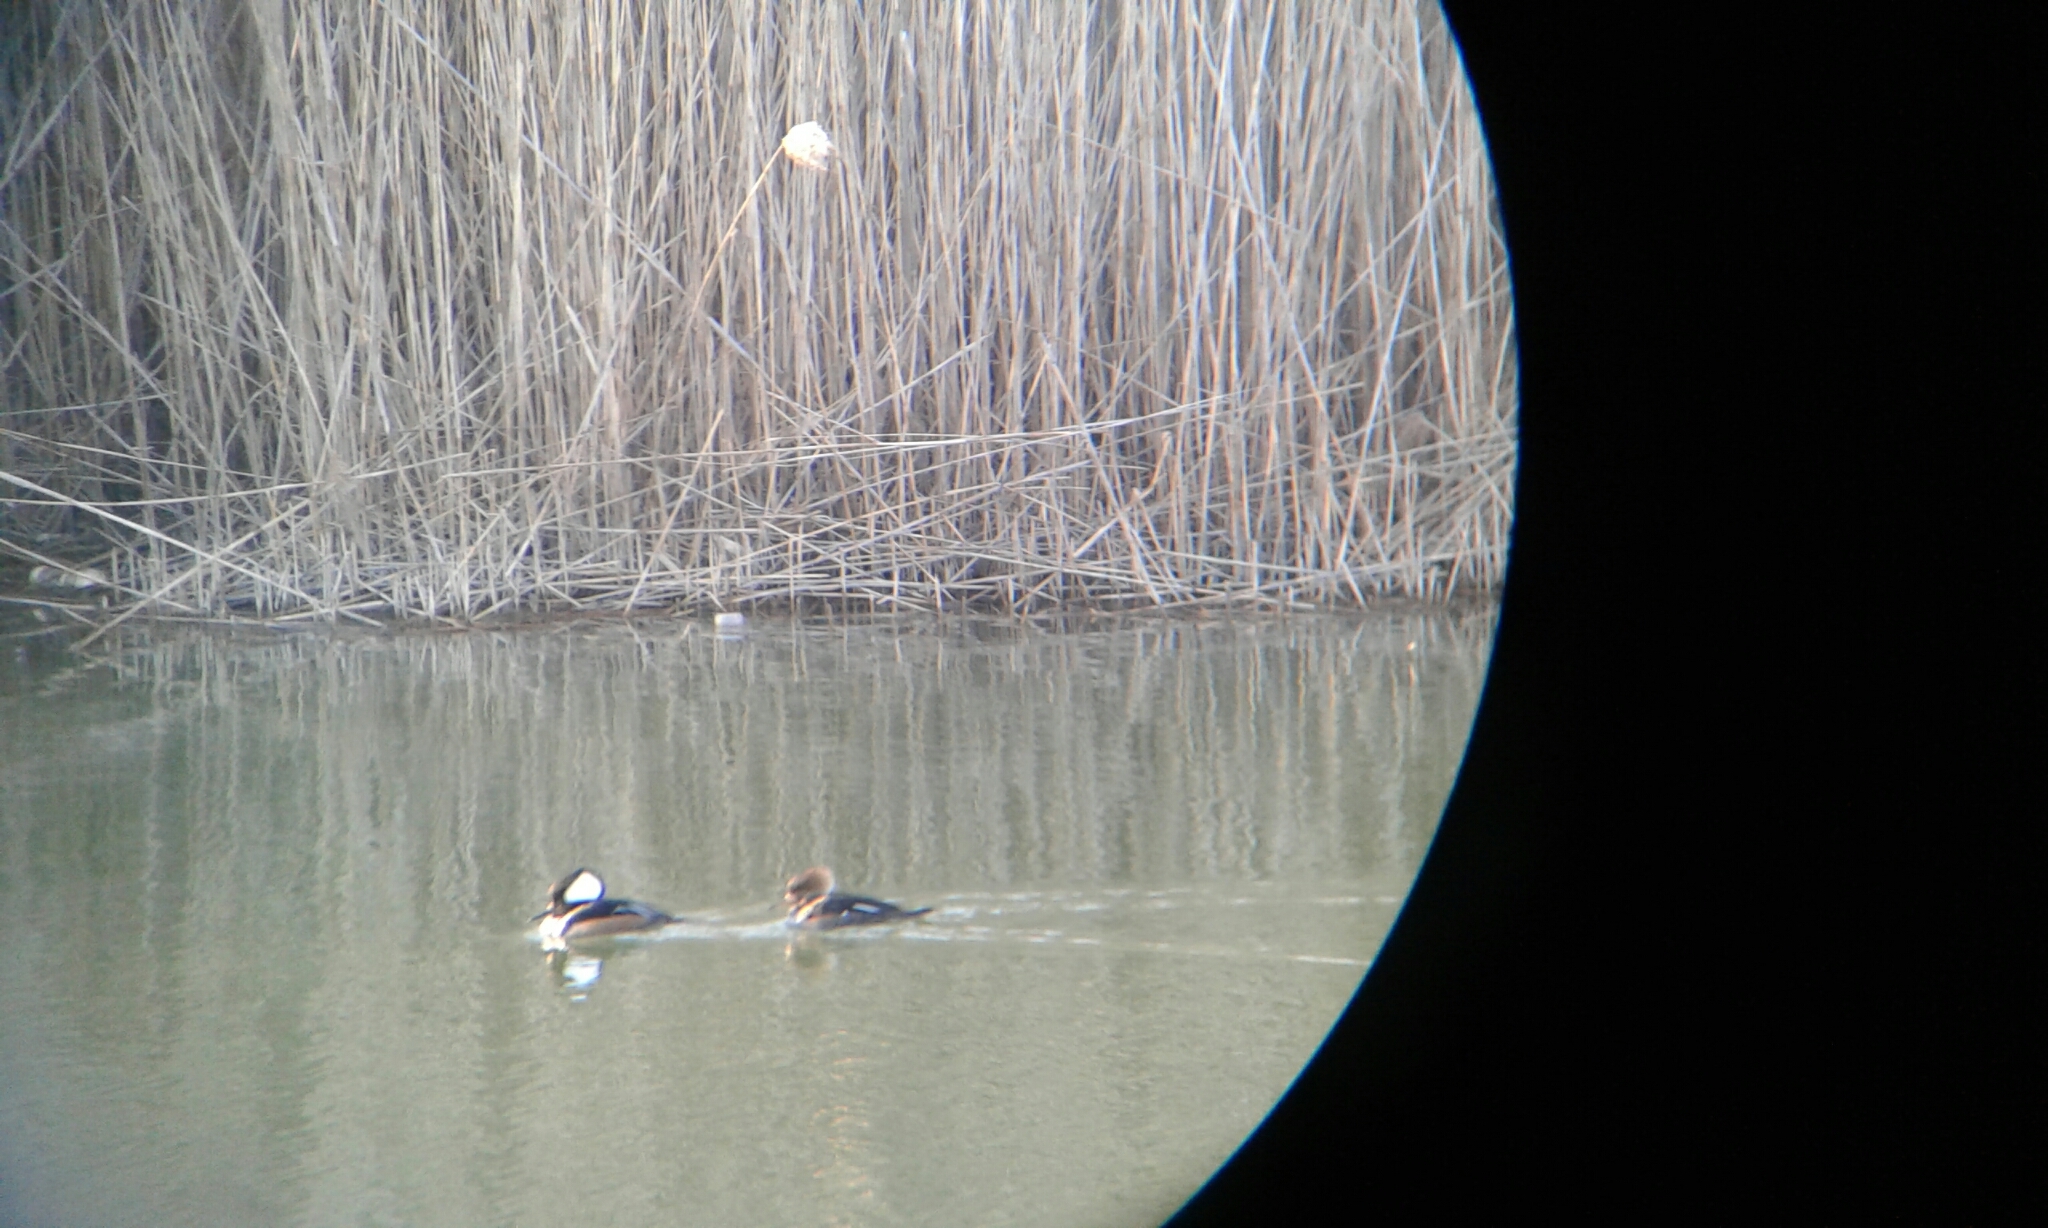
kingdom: Animalia
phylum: Chordata
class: Aves
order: Anseriformes
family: Anatidae
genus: Lophodytes
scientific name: Lophodytes cucullatus
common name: Hooded merganser
